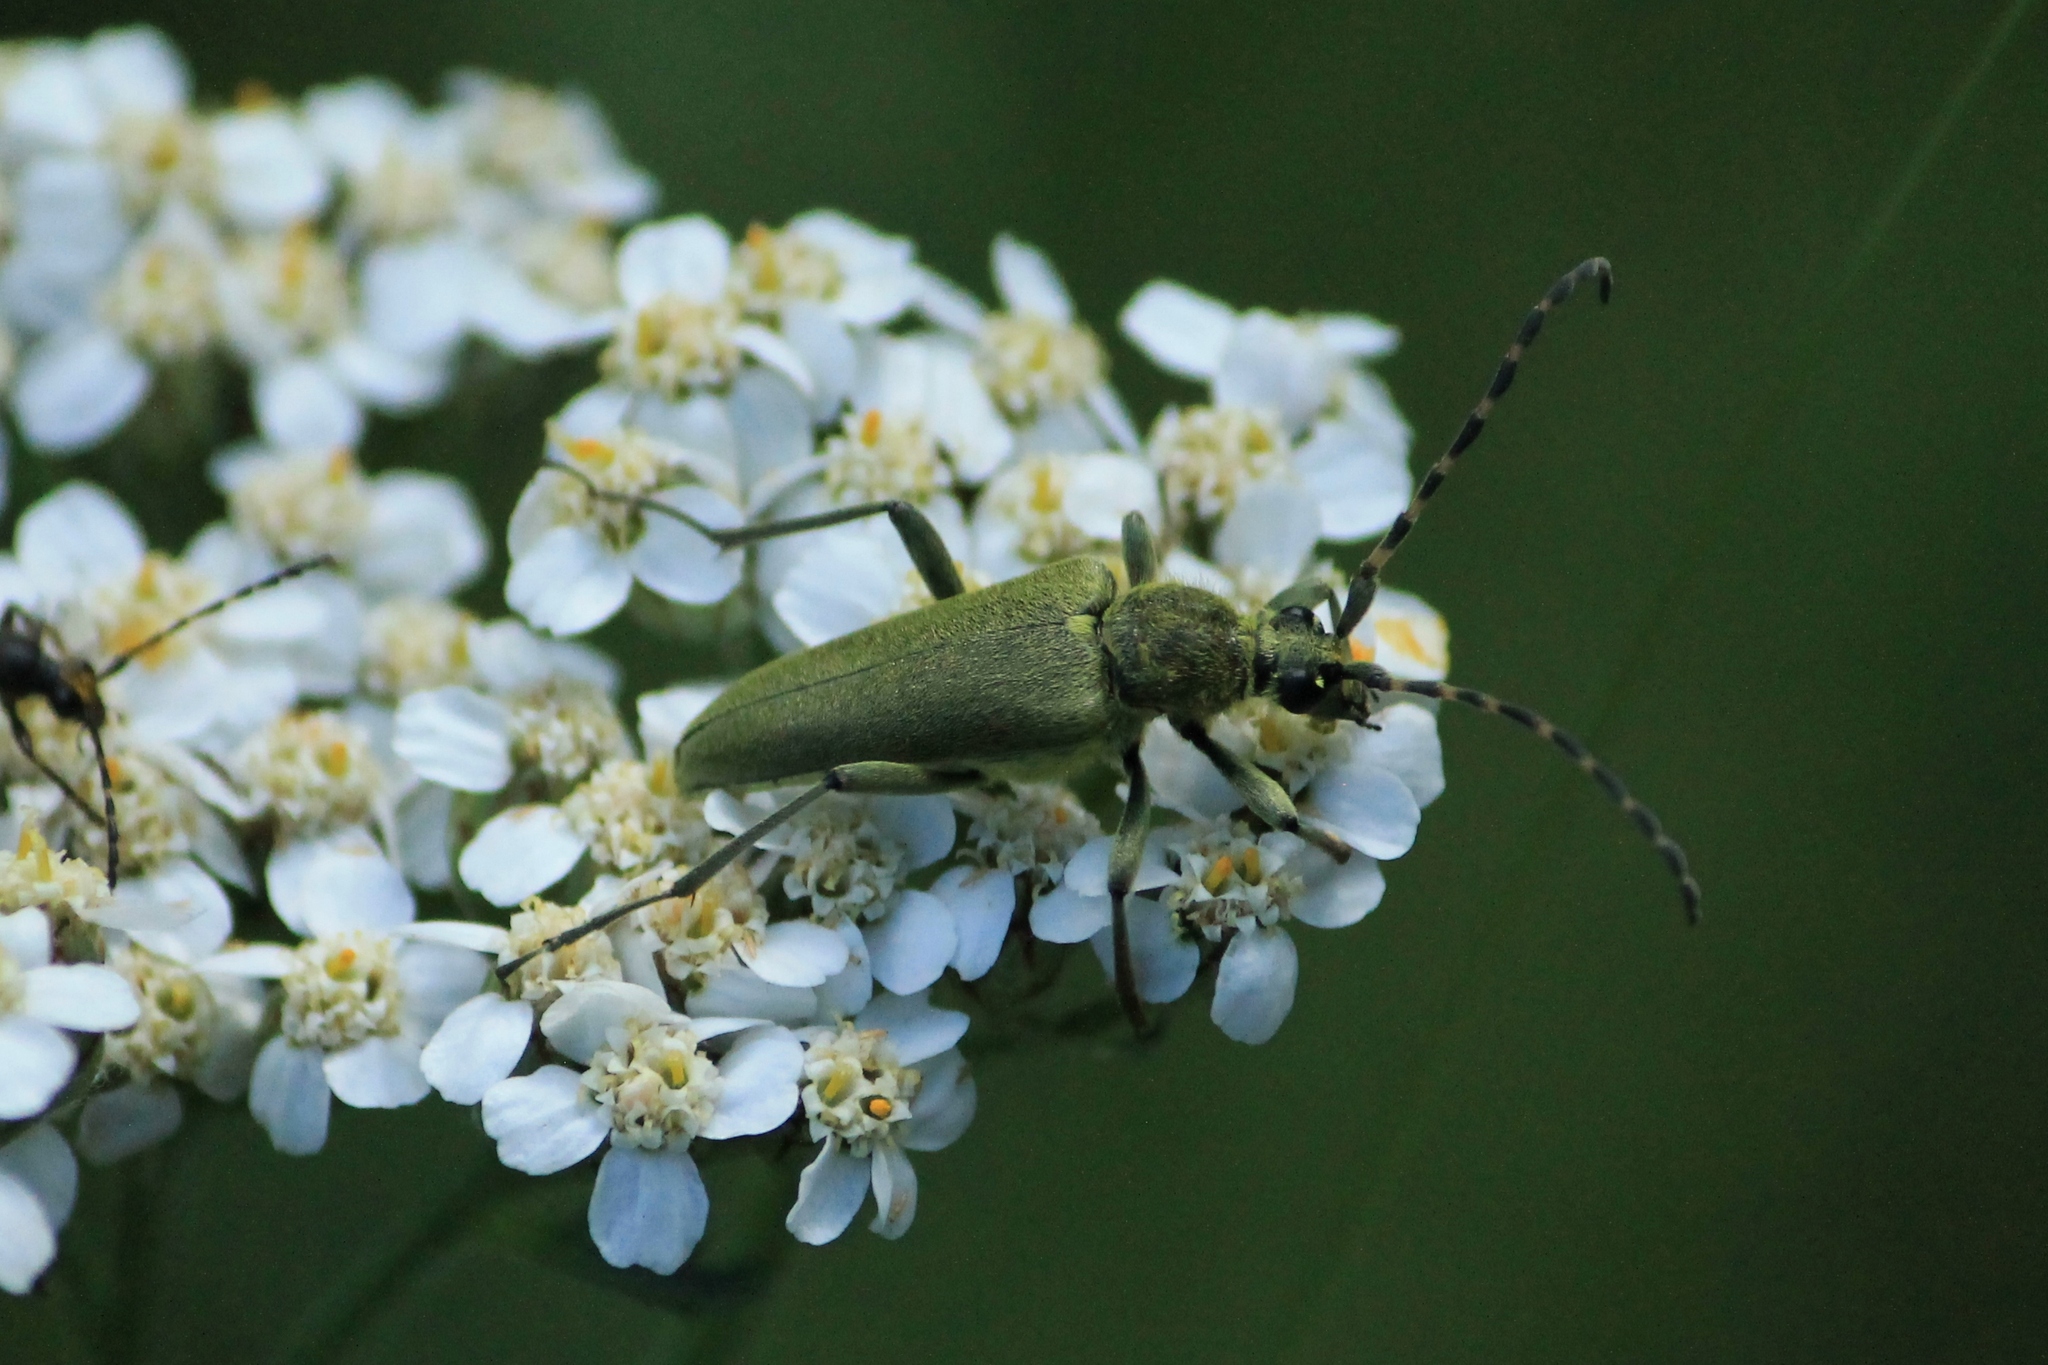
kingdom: Animalia
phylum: Arthropoda
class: Insecta
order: Coleoptera
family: Cerambycidae
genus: Lepturobosca
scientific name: Lepturobosca virens
